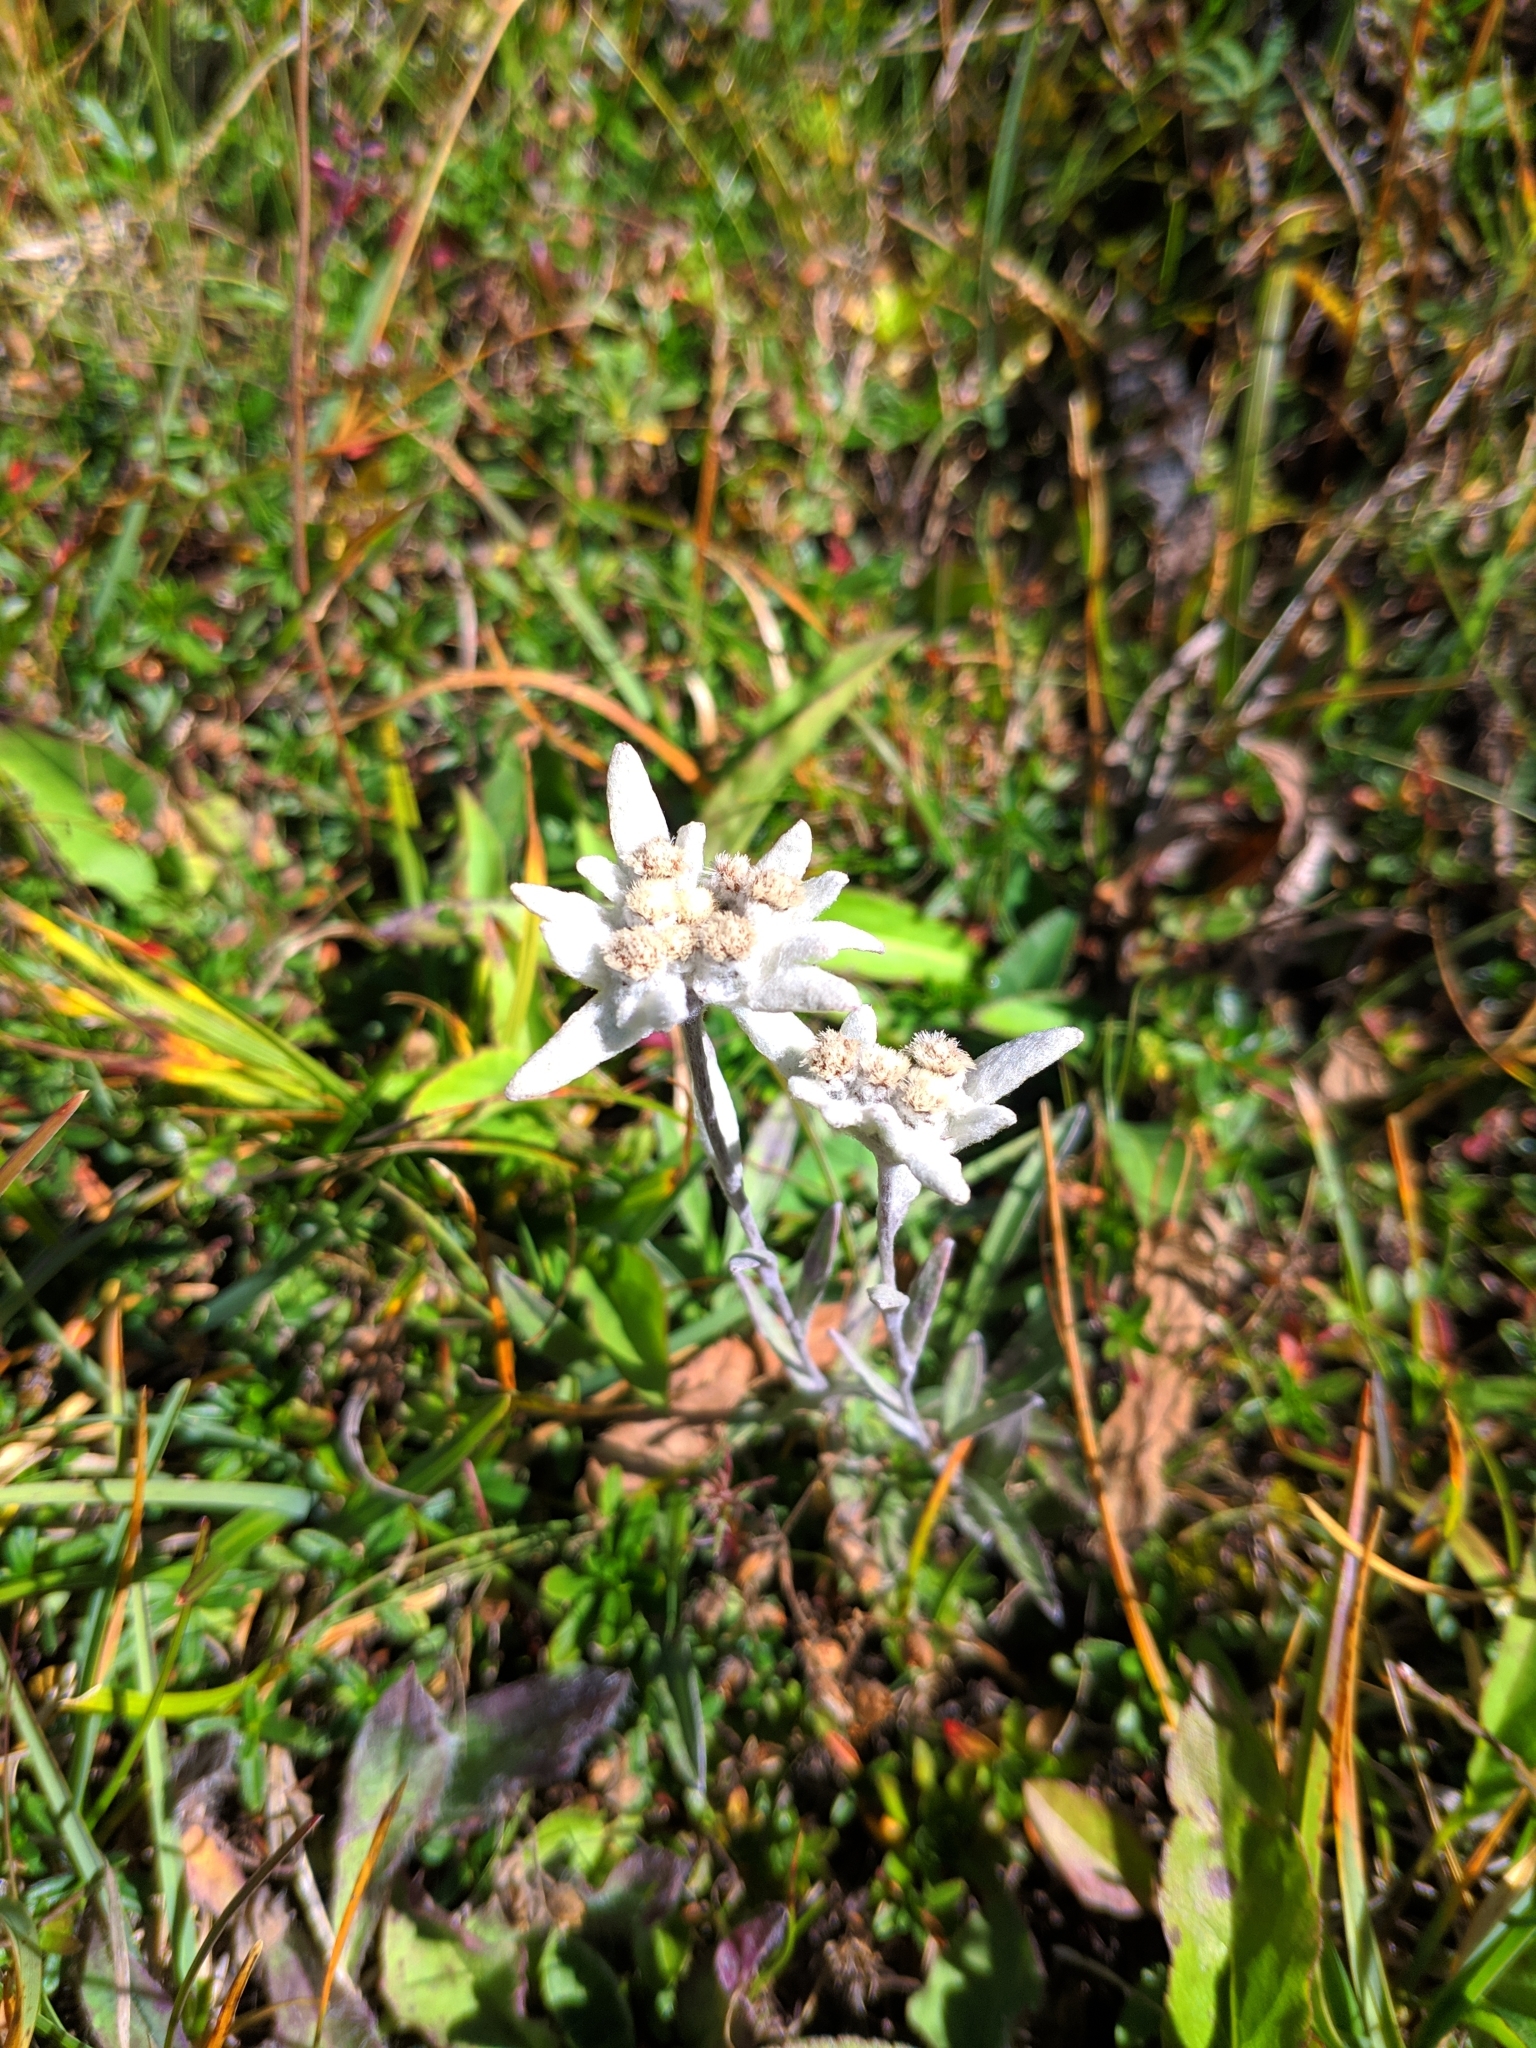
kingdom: Plantae
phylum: Tracheophyta
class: Magnoliopsida
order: Asterales
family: Asteraceae
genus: Leontopodium
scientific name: Leontopodium nivale
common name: Edelweiss
